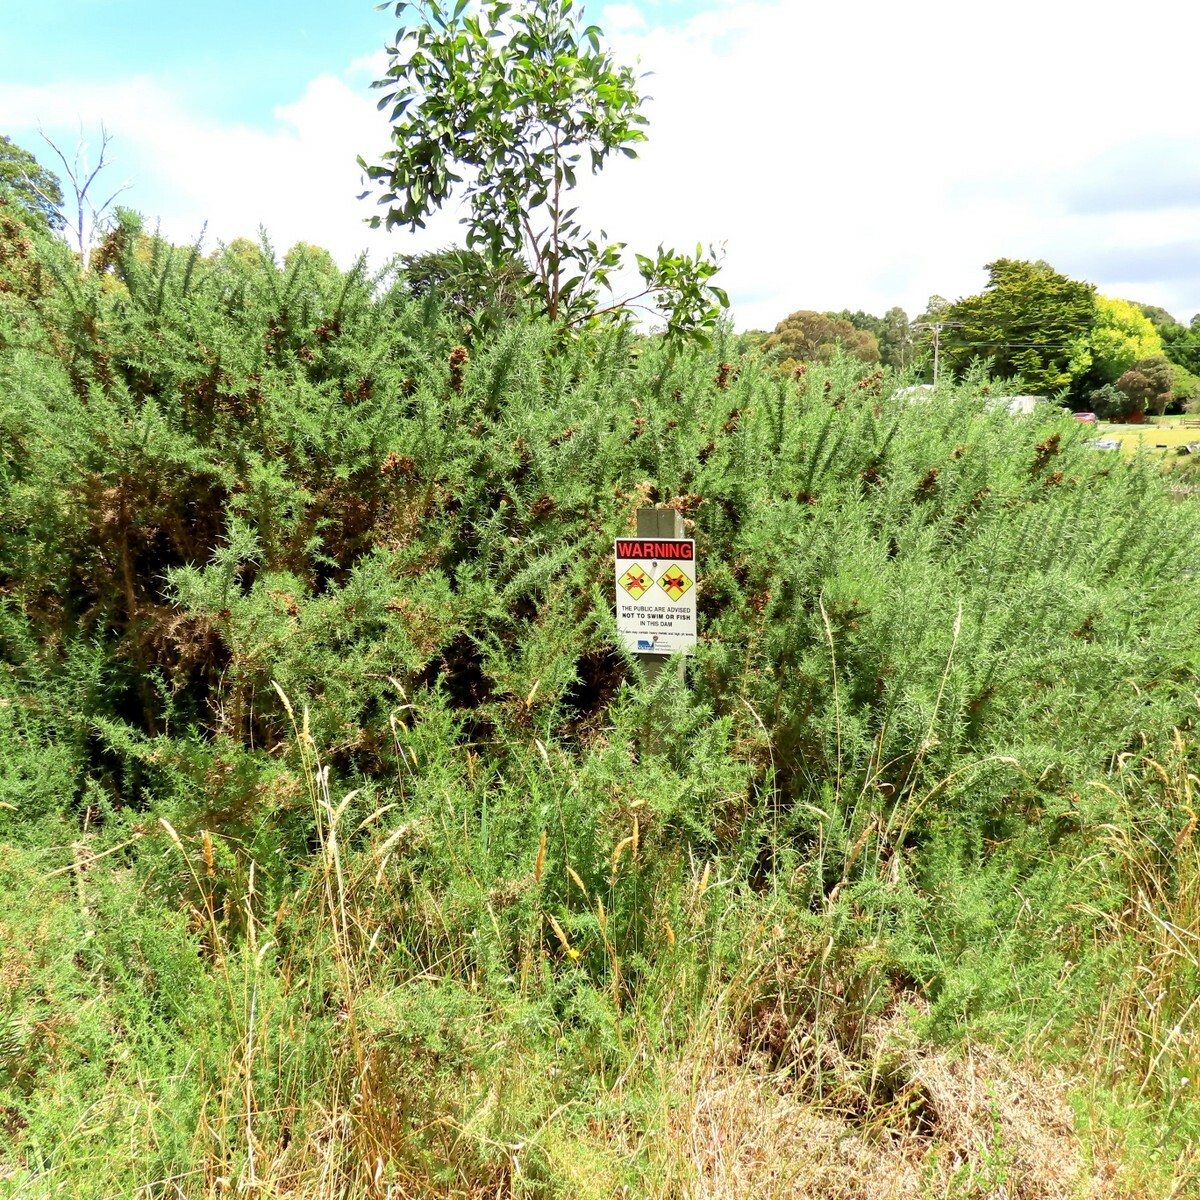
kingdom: Plantae
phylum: Tracheophyta
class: Magnoliopsida
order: Fabales
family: Fabaceae
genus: Ulex
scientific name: Ulex europaeus
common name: Common gorse
